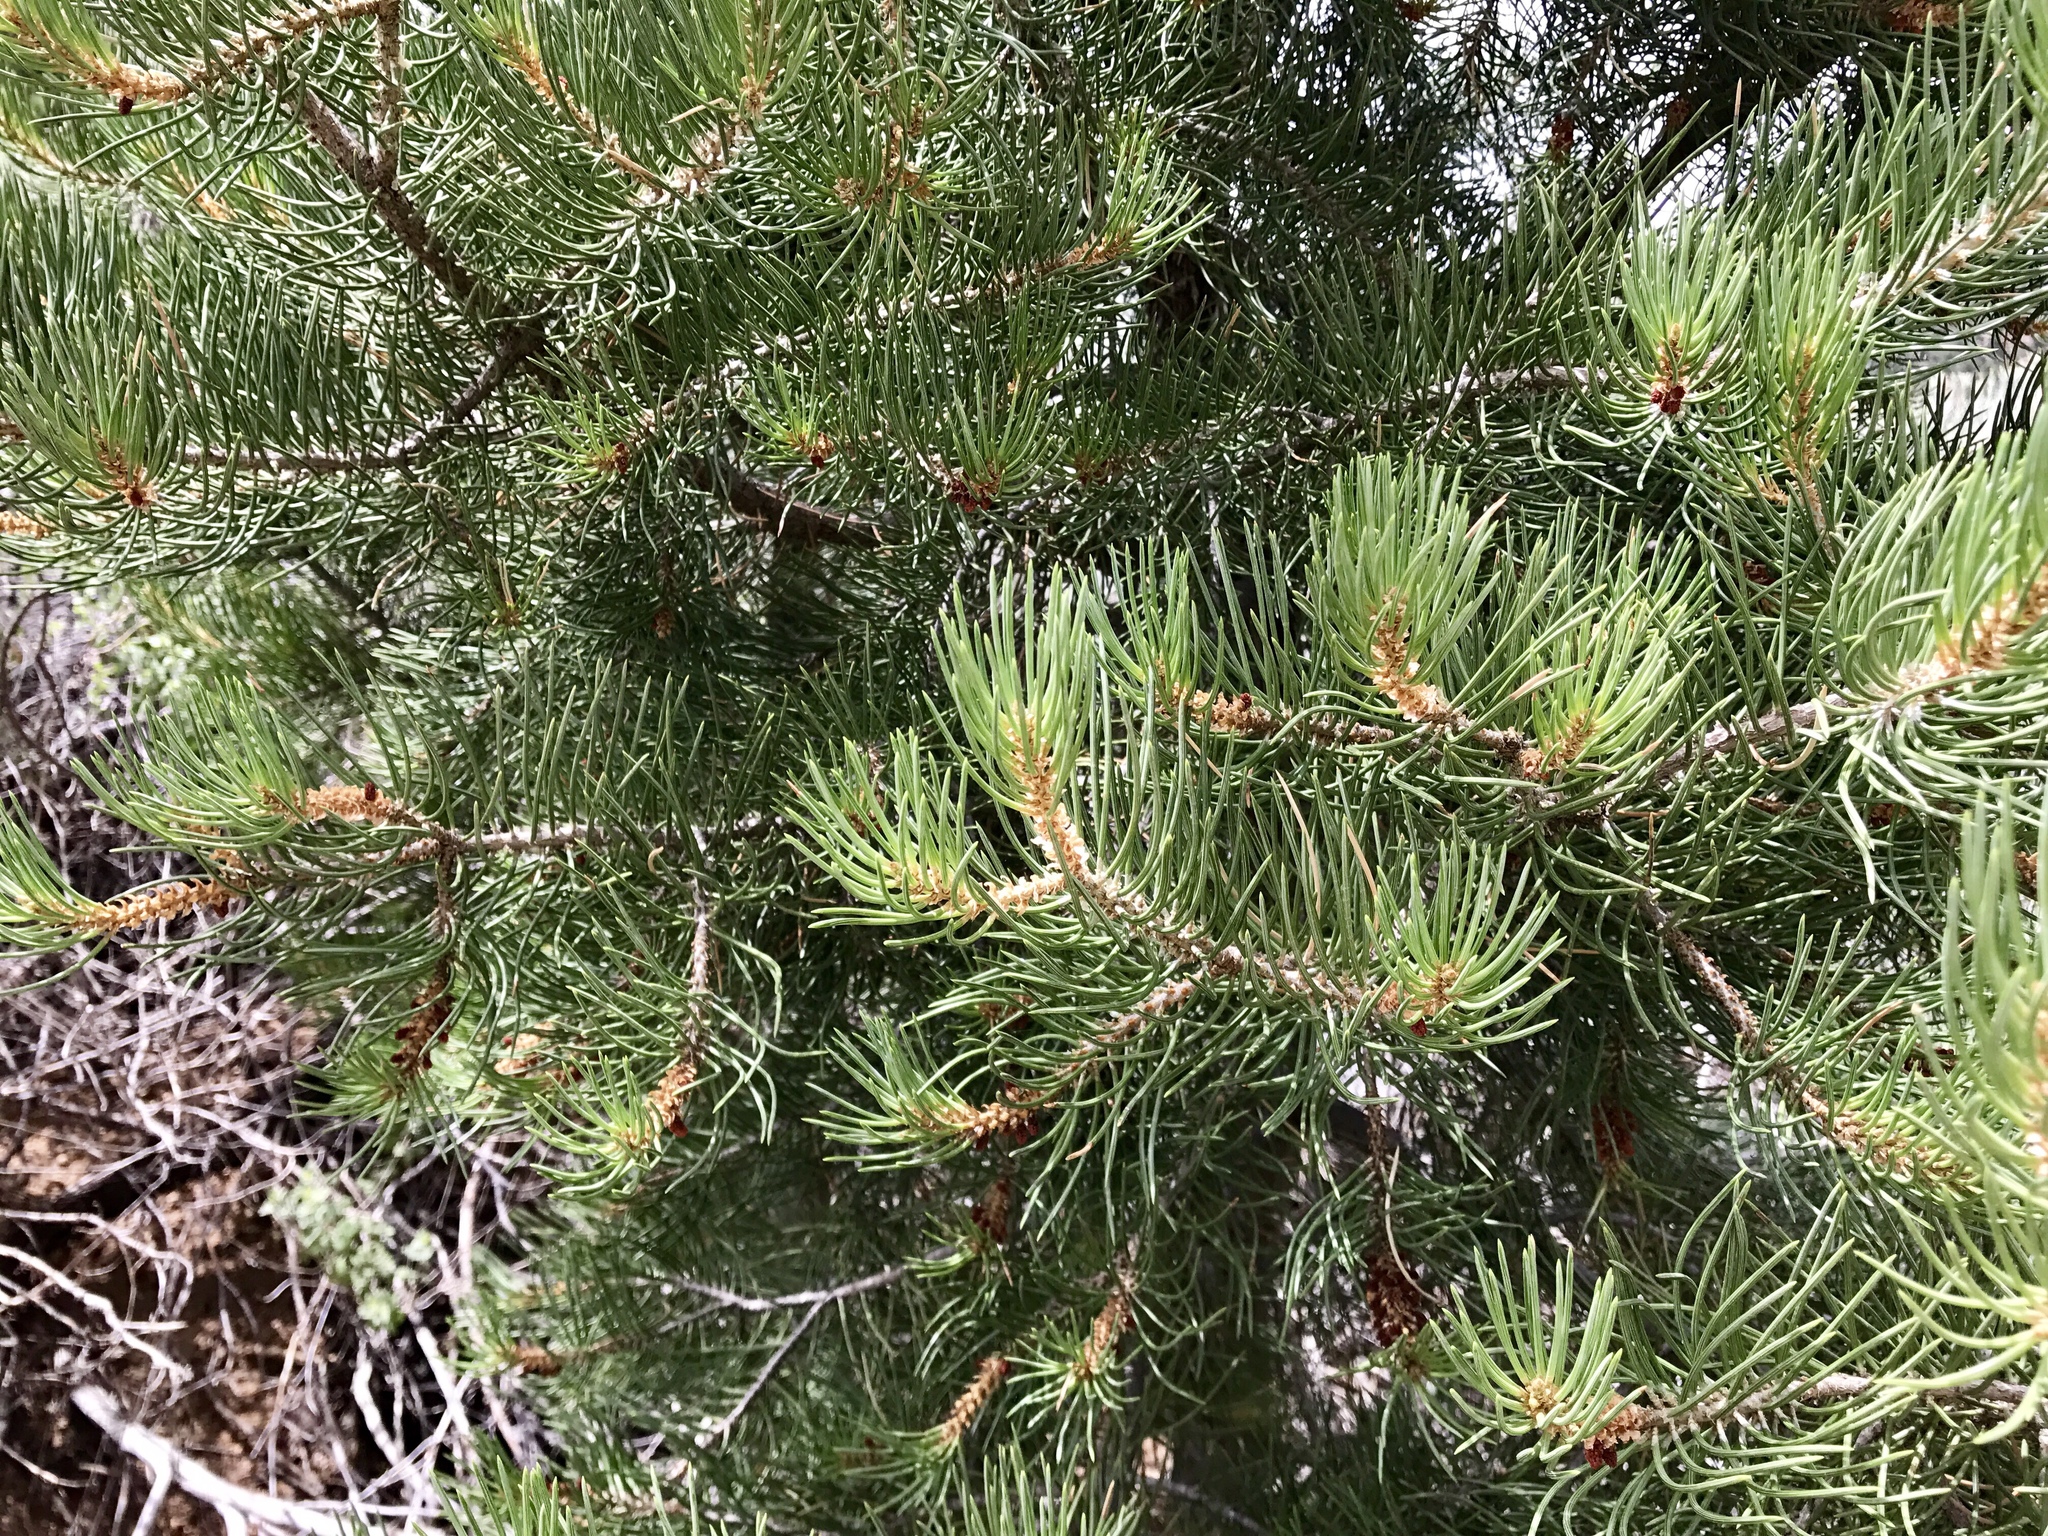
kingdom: Plantae
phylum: Tracheophyta
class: Pinopsida
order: Pinales
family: Pinaceae
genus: Pinus
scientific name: Pinus monophylla
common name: One-leaved nut pine
